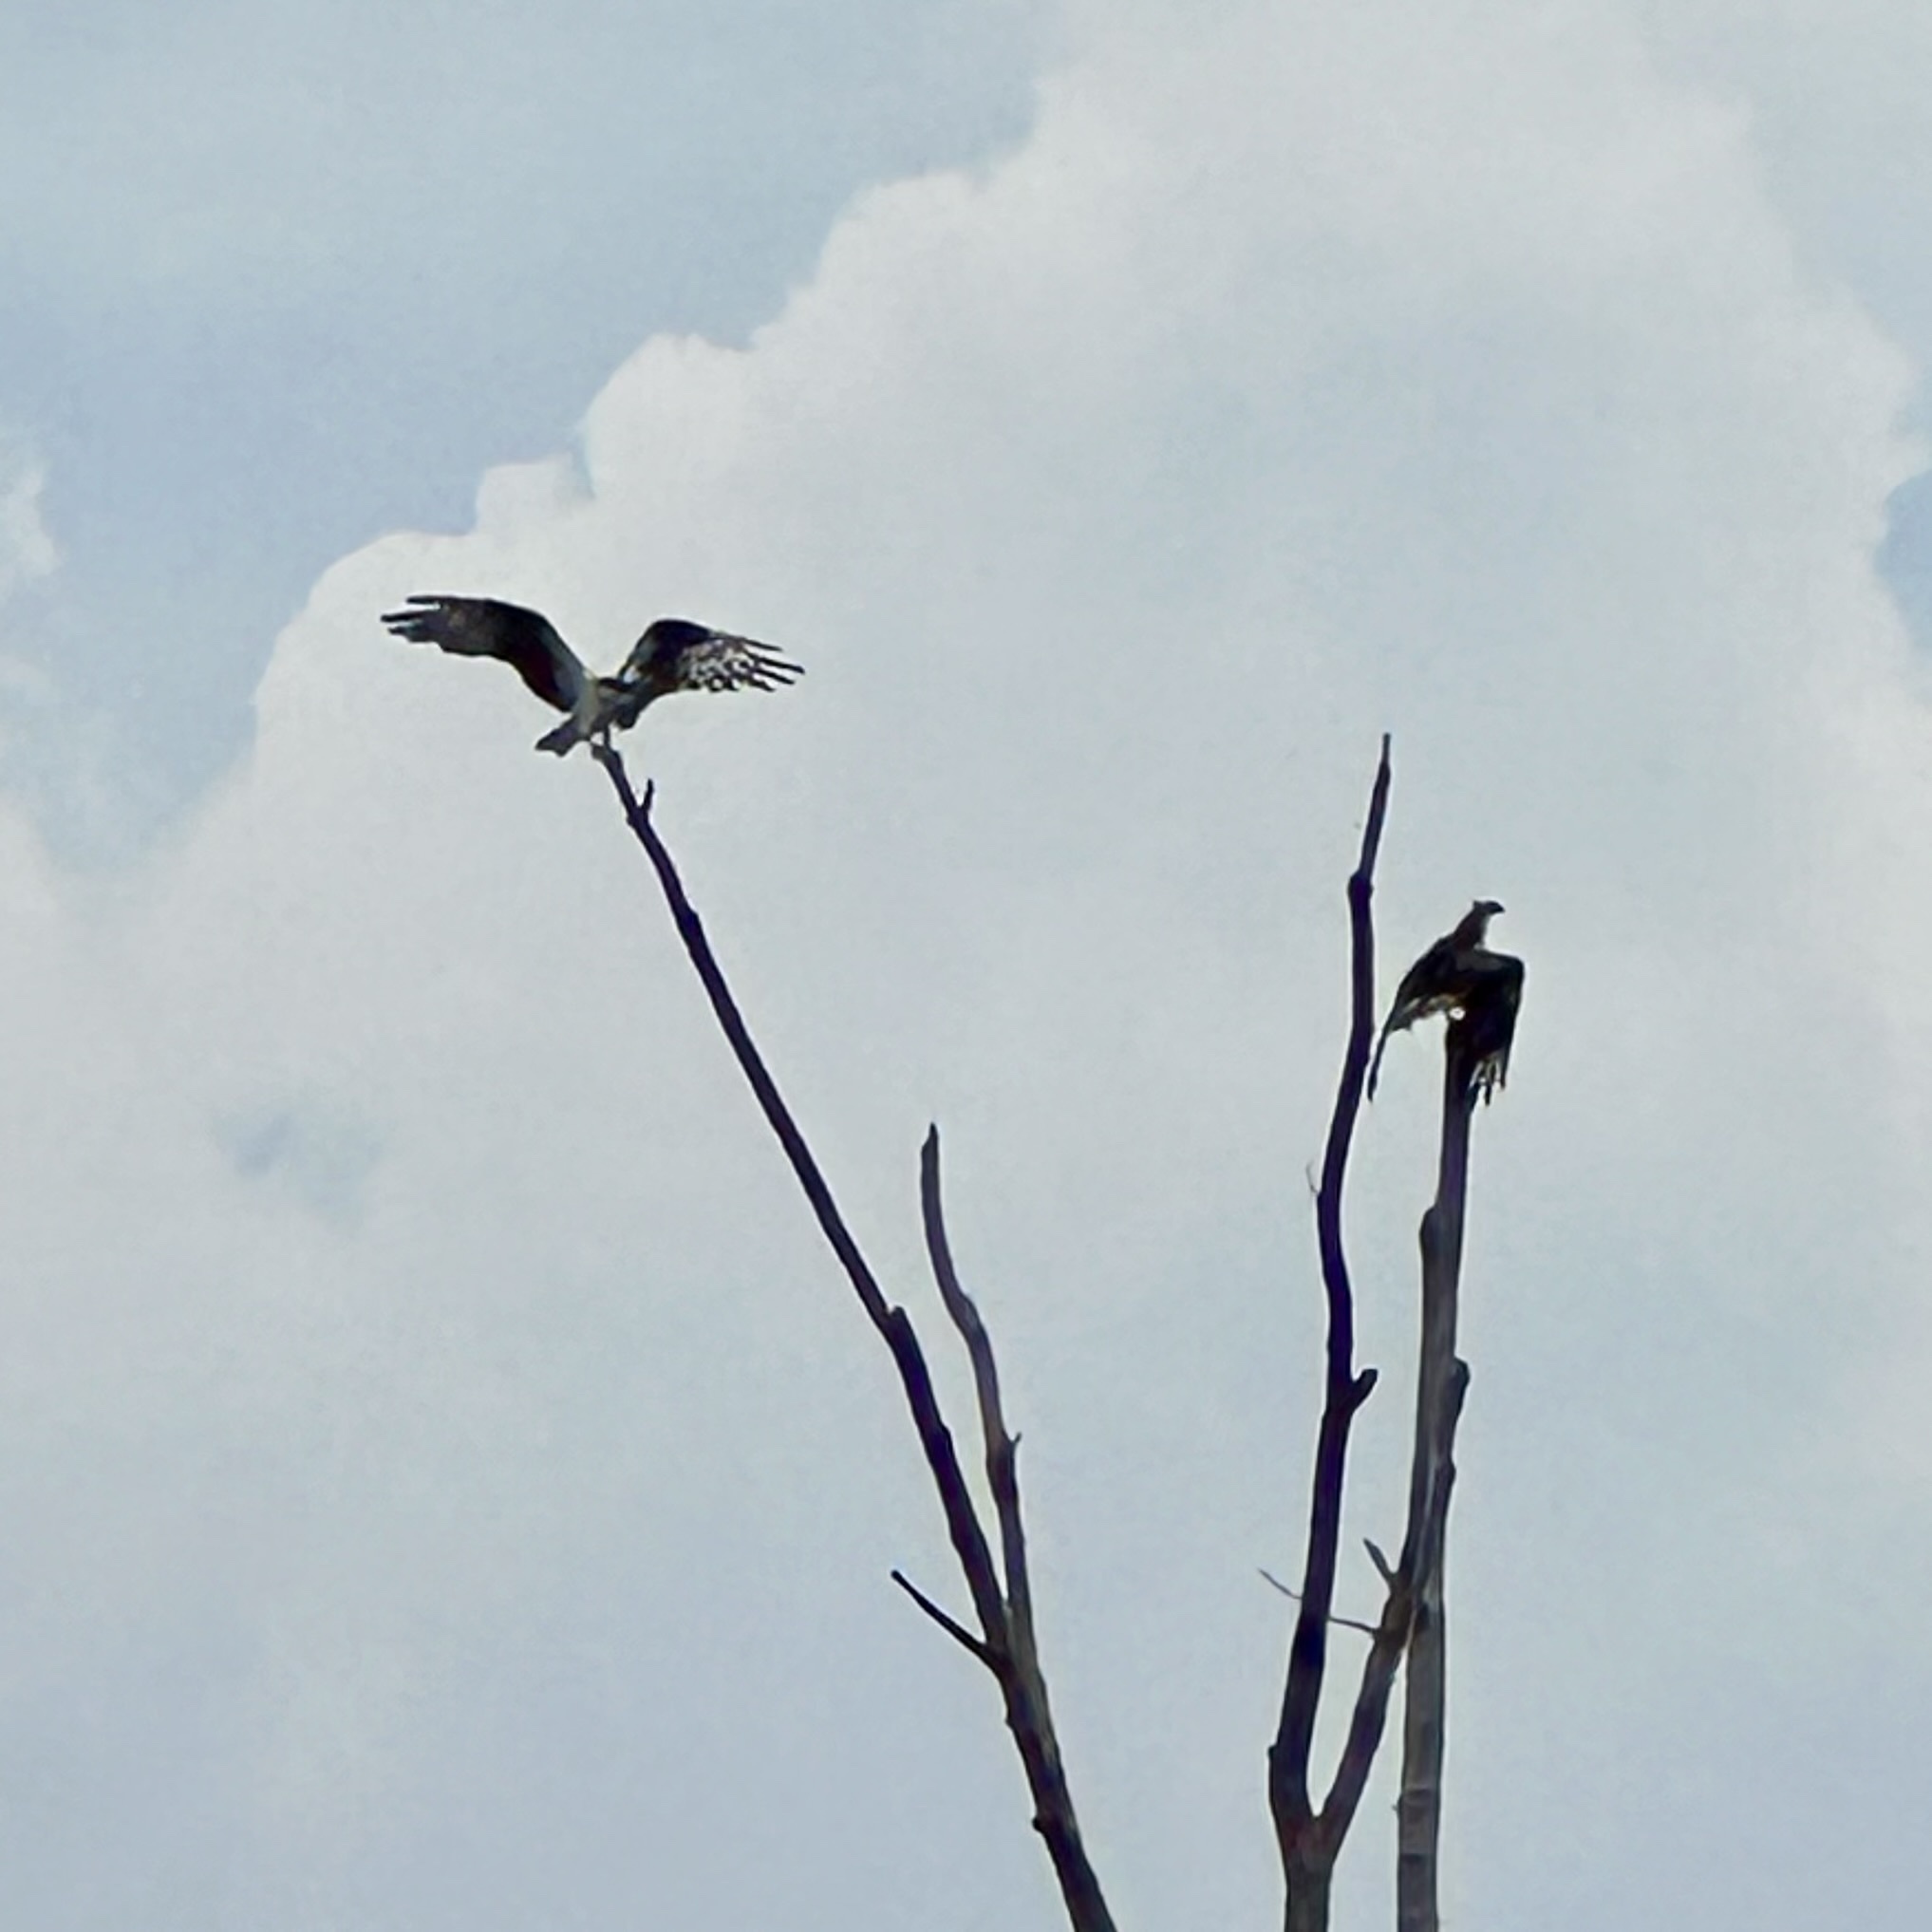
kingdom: Animalia
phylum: Chordata
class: Aves
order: Accipitriformes
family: Pandionidae
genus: Pandion
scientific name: Pandion haliaetus
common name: Osprey
